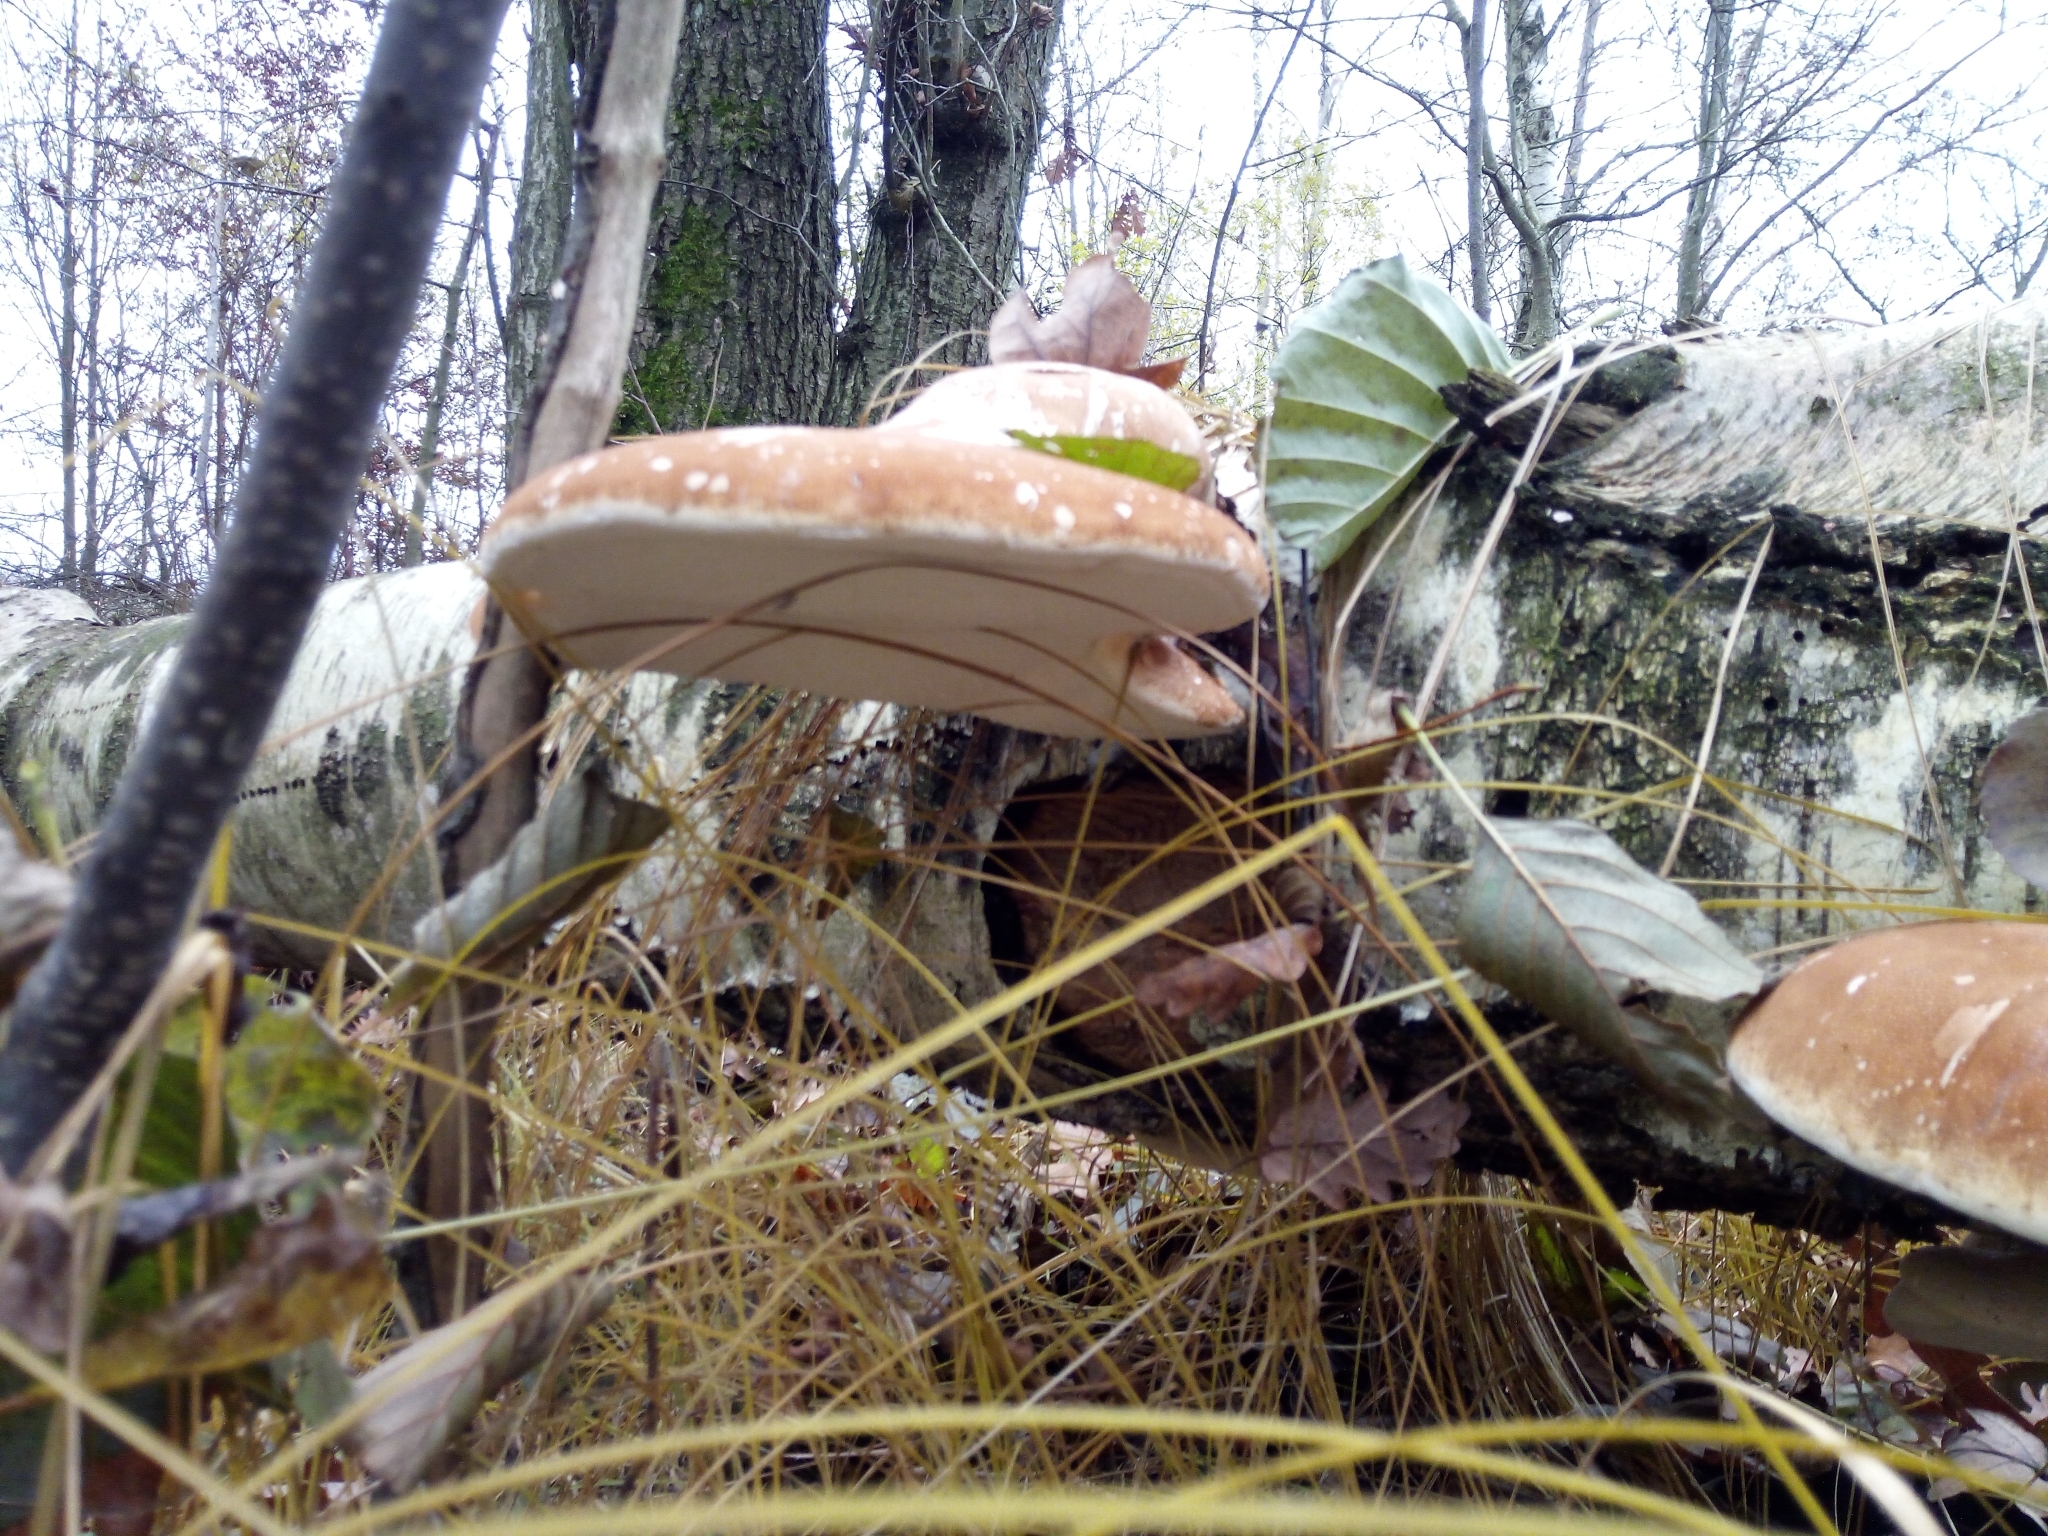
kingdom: Fungi
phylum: Basidiomycota
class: Agaricomycetes
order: Polyporales
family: Fomitopsidaceae
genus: Fomitopsis
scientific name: Fomitopsis betulina
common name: Birch polypore
